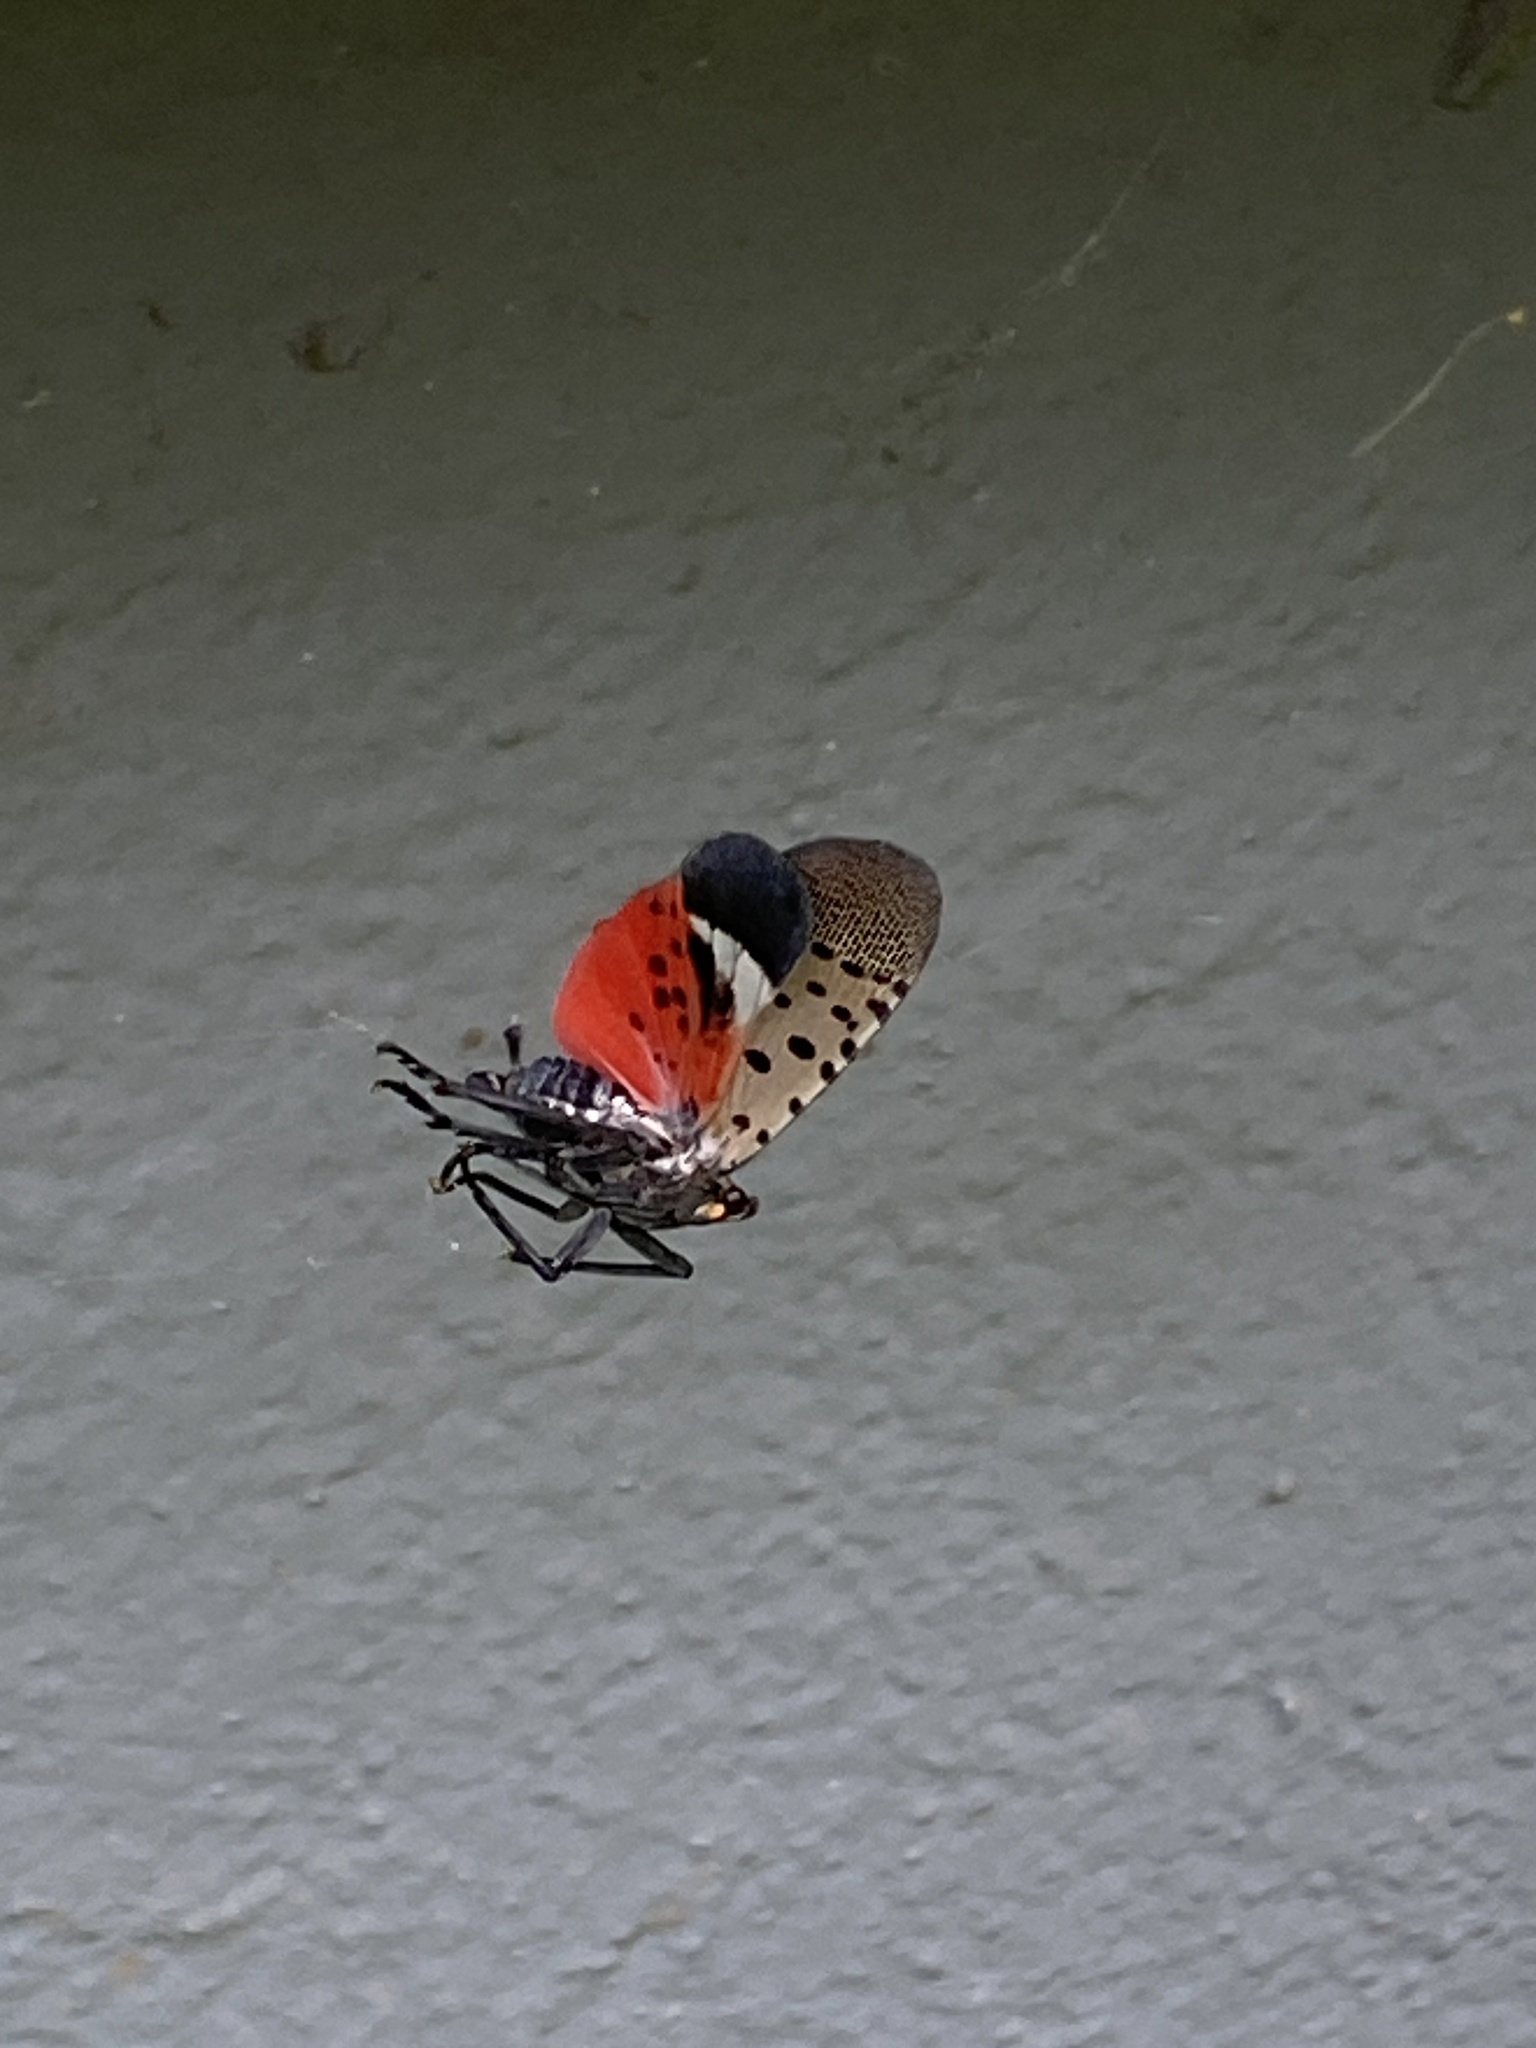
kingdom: Animalia
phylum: Arthropoda
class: Insecta
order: Hemiptera
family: Fulgoridae
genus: Lycorma
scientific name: Lycorma delicatula
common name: Spotted lanternfly
